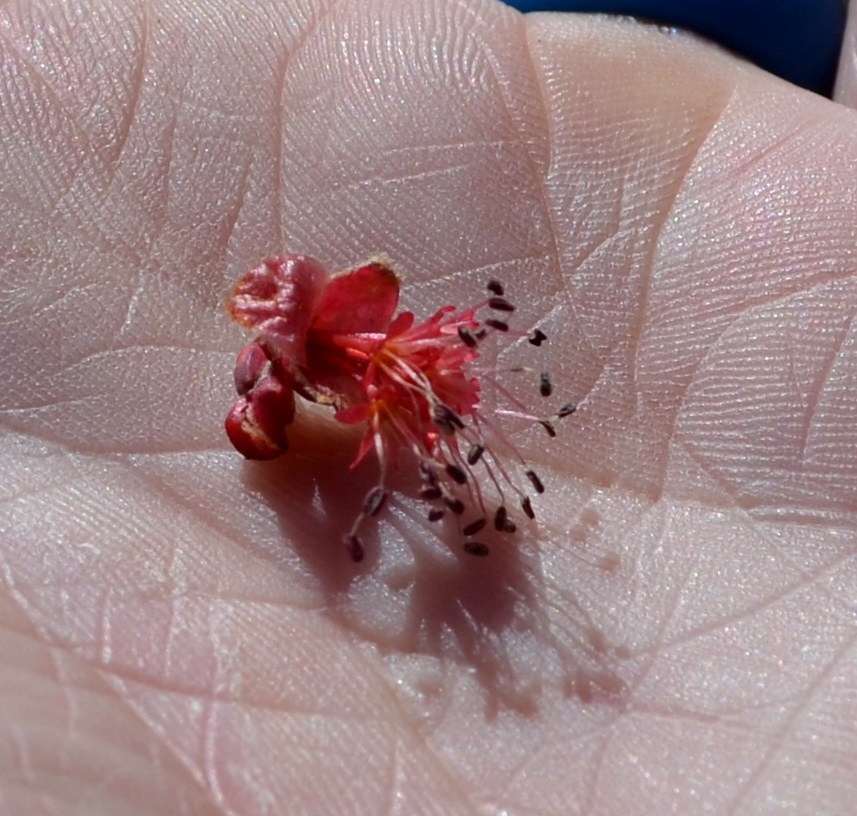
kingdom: Plantae
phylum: Tracheophyta
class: Magnoliopsida
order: Sapindales
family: Sapindaceae
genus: Acer
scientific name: Acer saccharinum
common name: Silver maple
